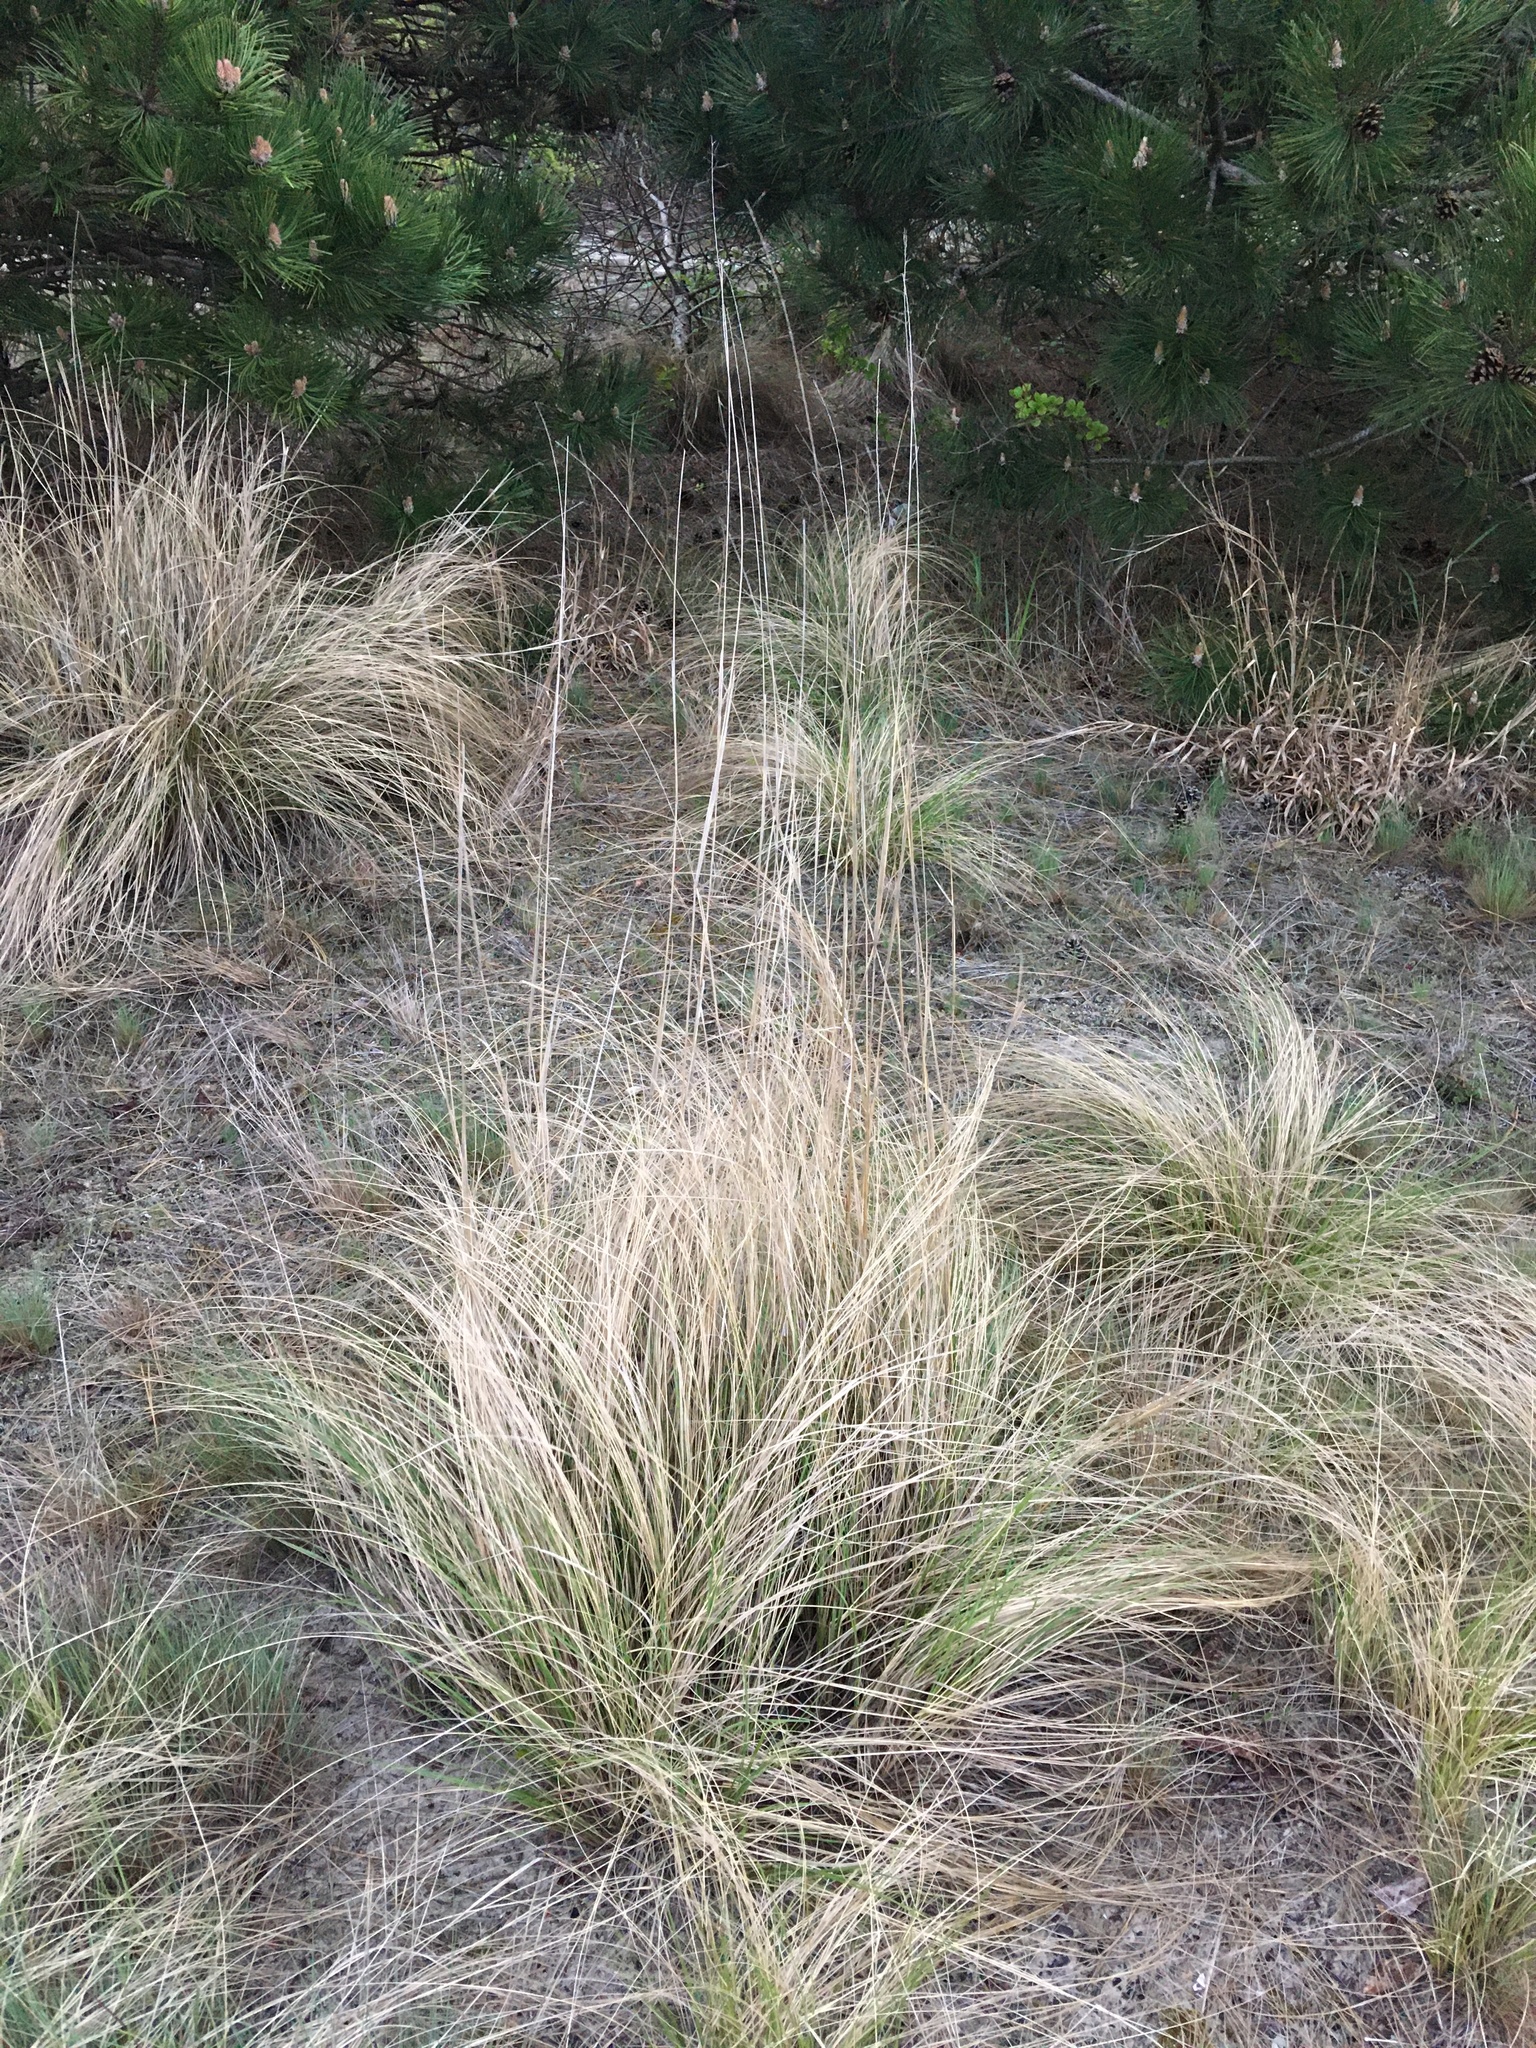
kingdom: Plantae
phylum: Tracheophyta
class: Liliopsida
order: Poales
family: Poaceae
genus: Eragrostis
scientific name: Eragrostis curvula
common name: African love-grass
